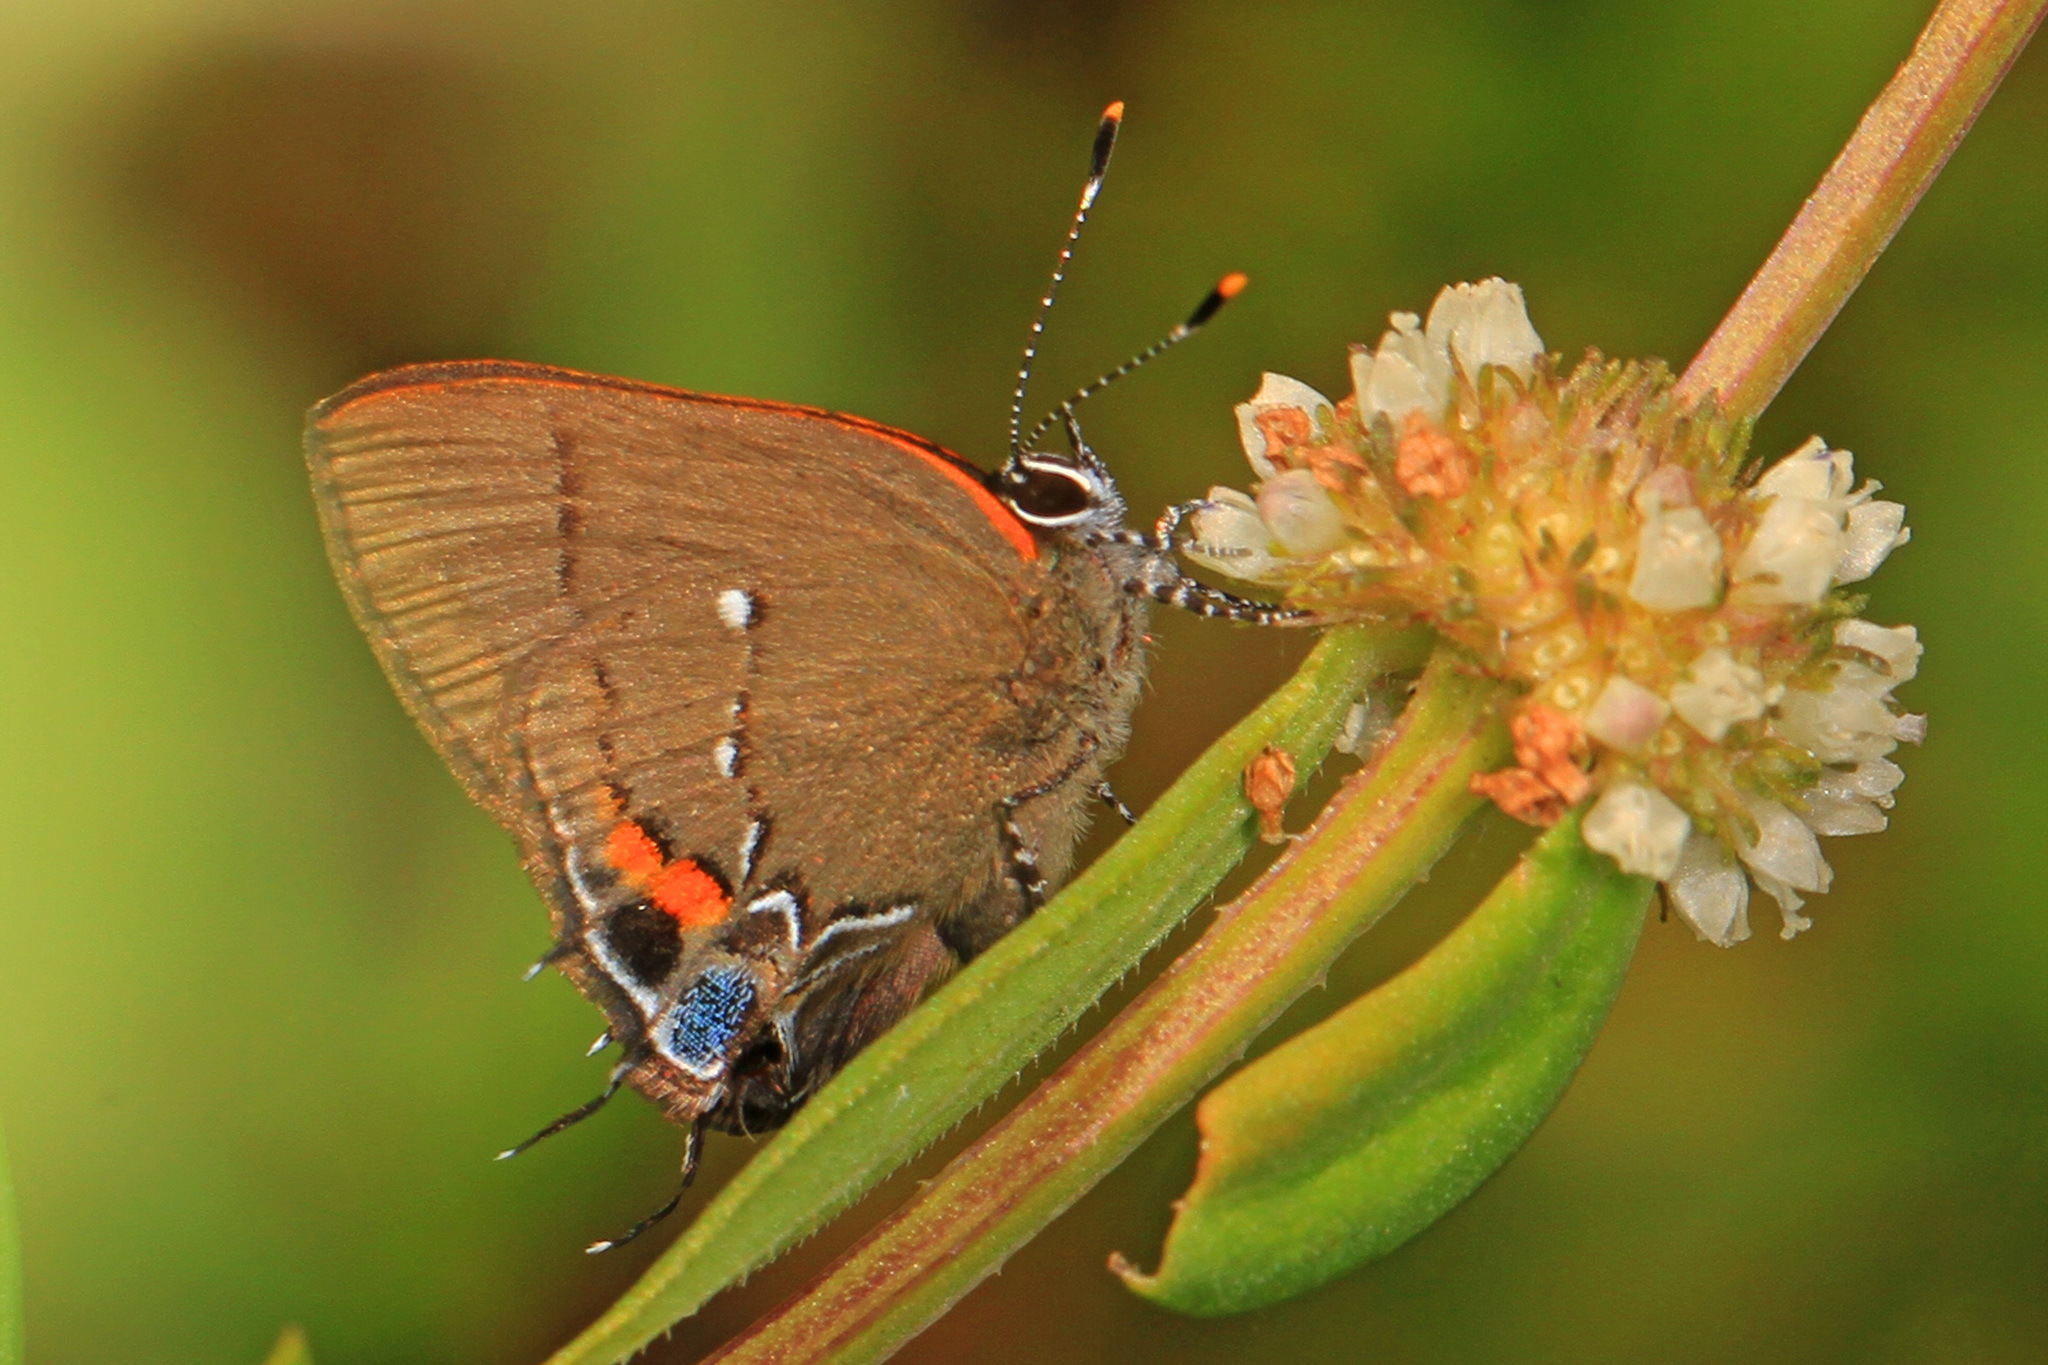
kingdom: Animalia
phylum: Arthropoda
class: Insecta
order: Lepidoptera
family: Lycaenidae
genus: Thecla
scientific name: Thecla angelia
